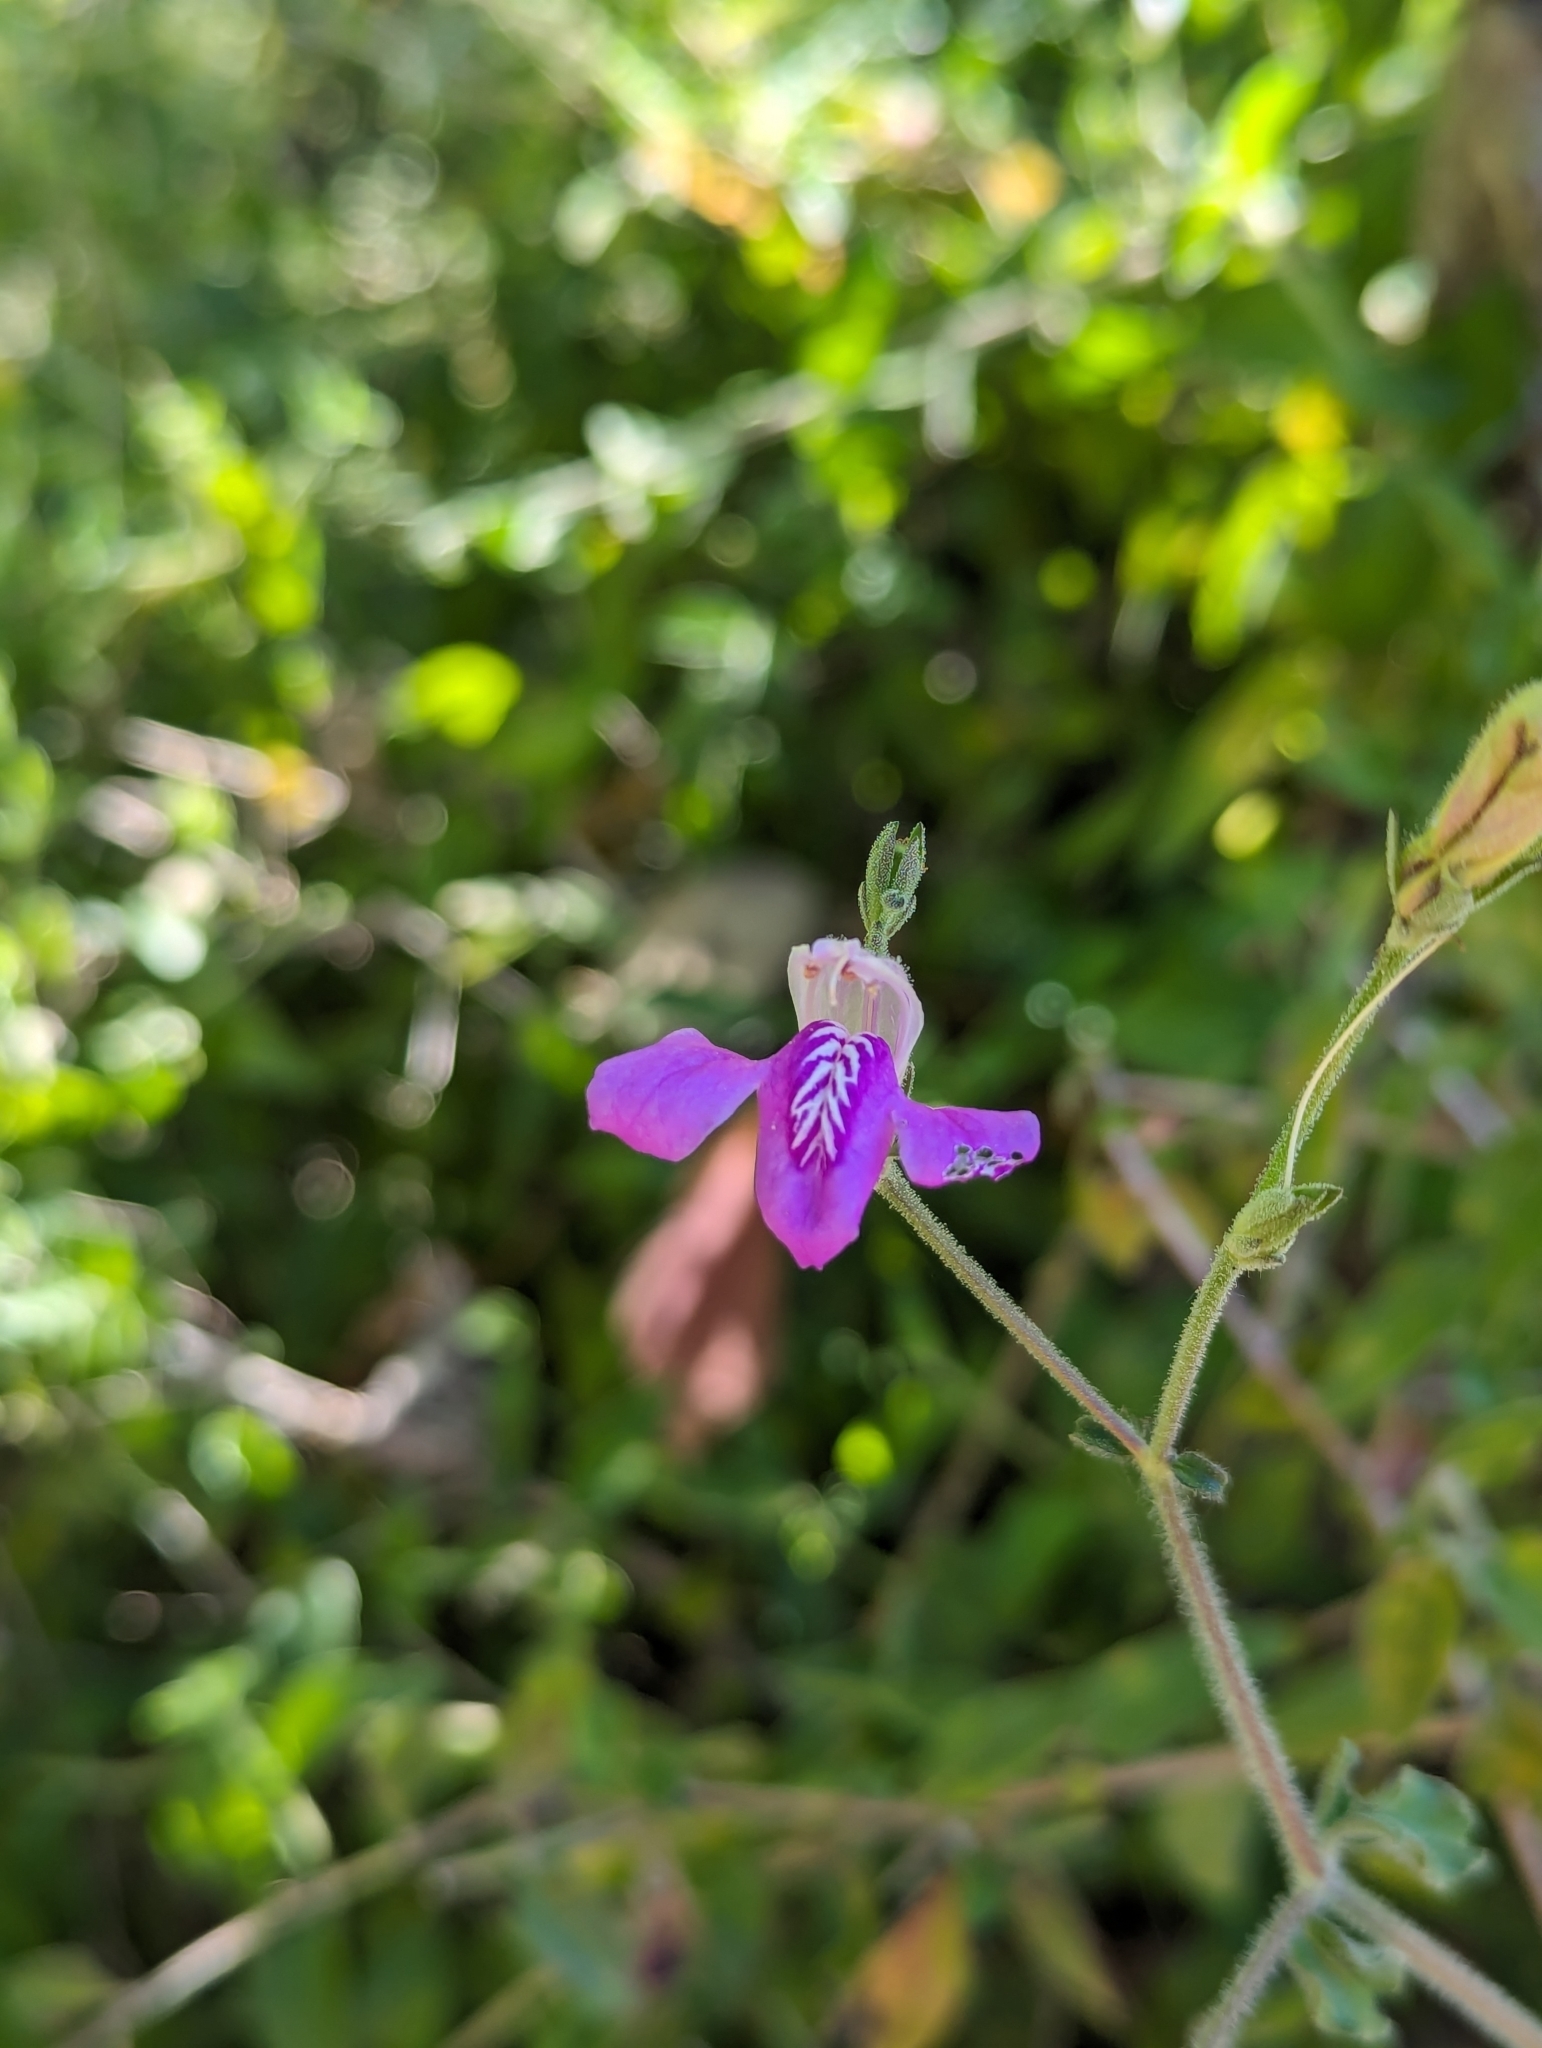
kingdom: Plantae
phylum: Tracheophyta
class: Magnoliopsida
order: Lamiales
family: Acanthaceae
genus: Justicia
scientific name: Justicia insolita
